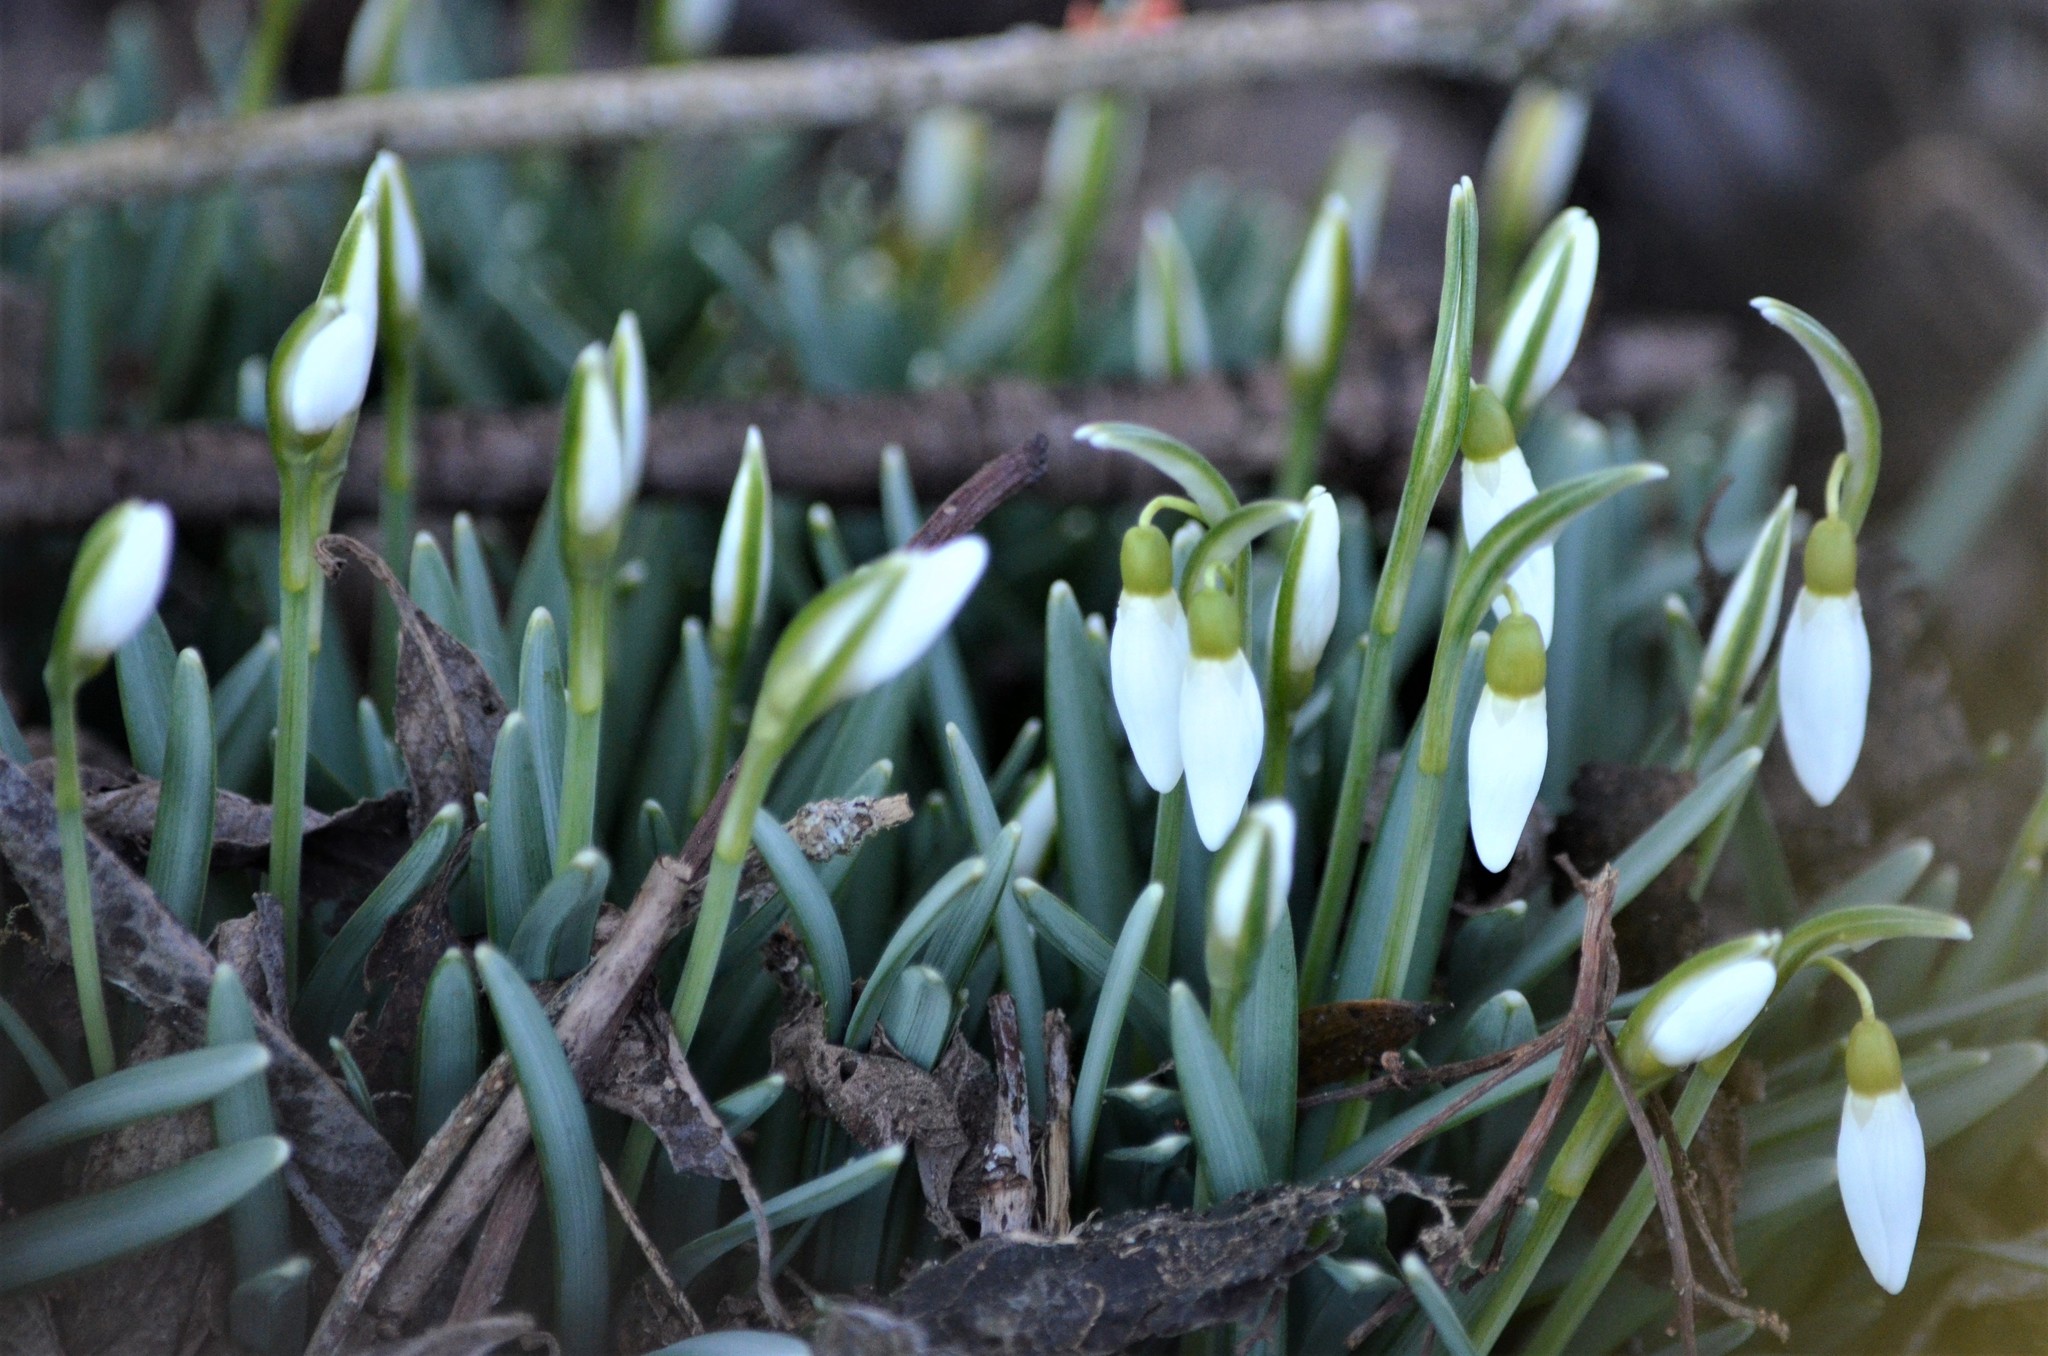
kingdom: Plantae
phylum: Tracheophyta
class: Liliopsida
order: Asparagales
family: Amaryllidaceae
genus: Galanthus
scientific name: Galanthus nivalis
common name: Snowdrop
